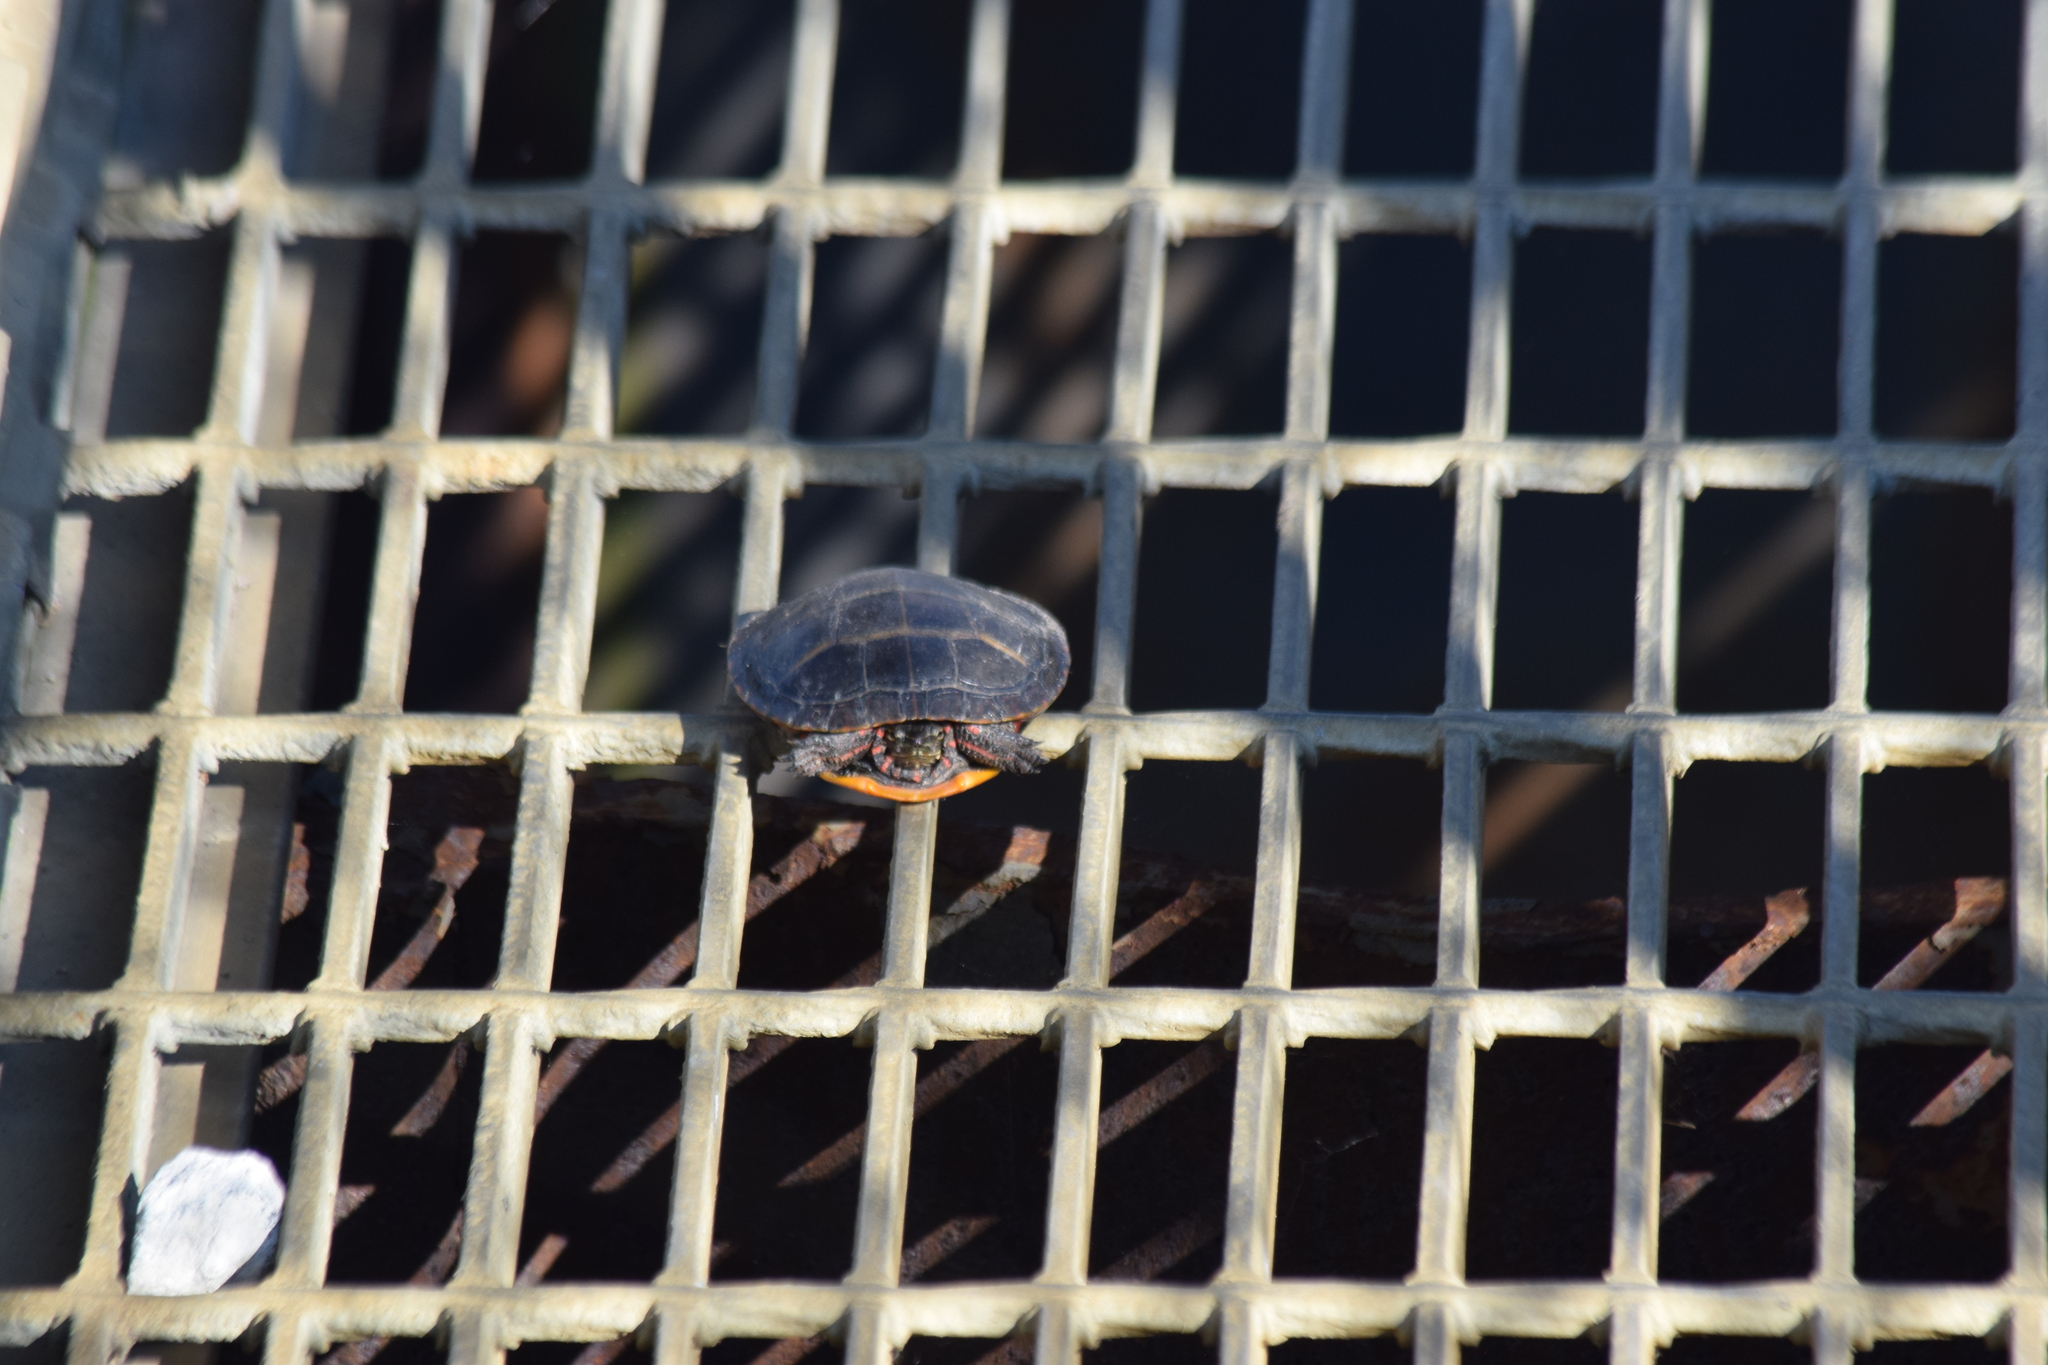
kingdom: Animalia
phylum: Chordata
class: Testudines
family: Emydidae
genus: Chrysemys
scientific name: Chrysemys picta
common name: Painted turtle
